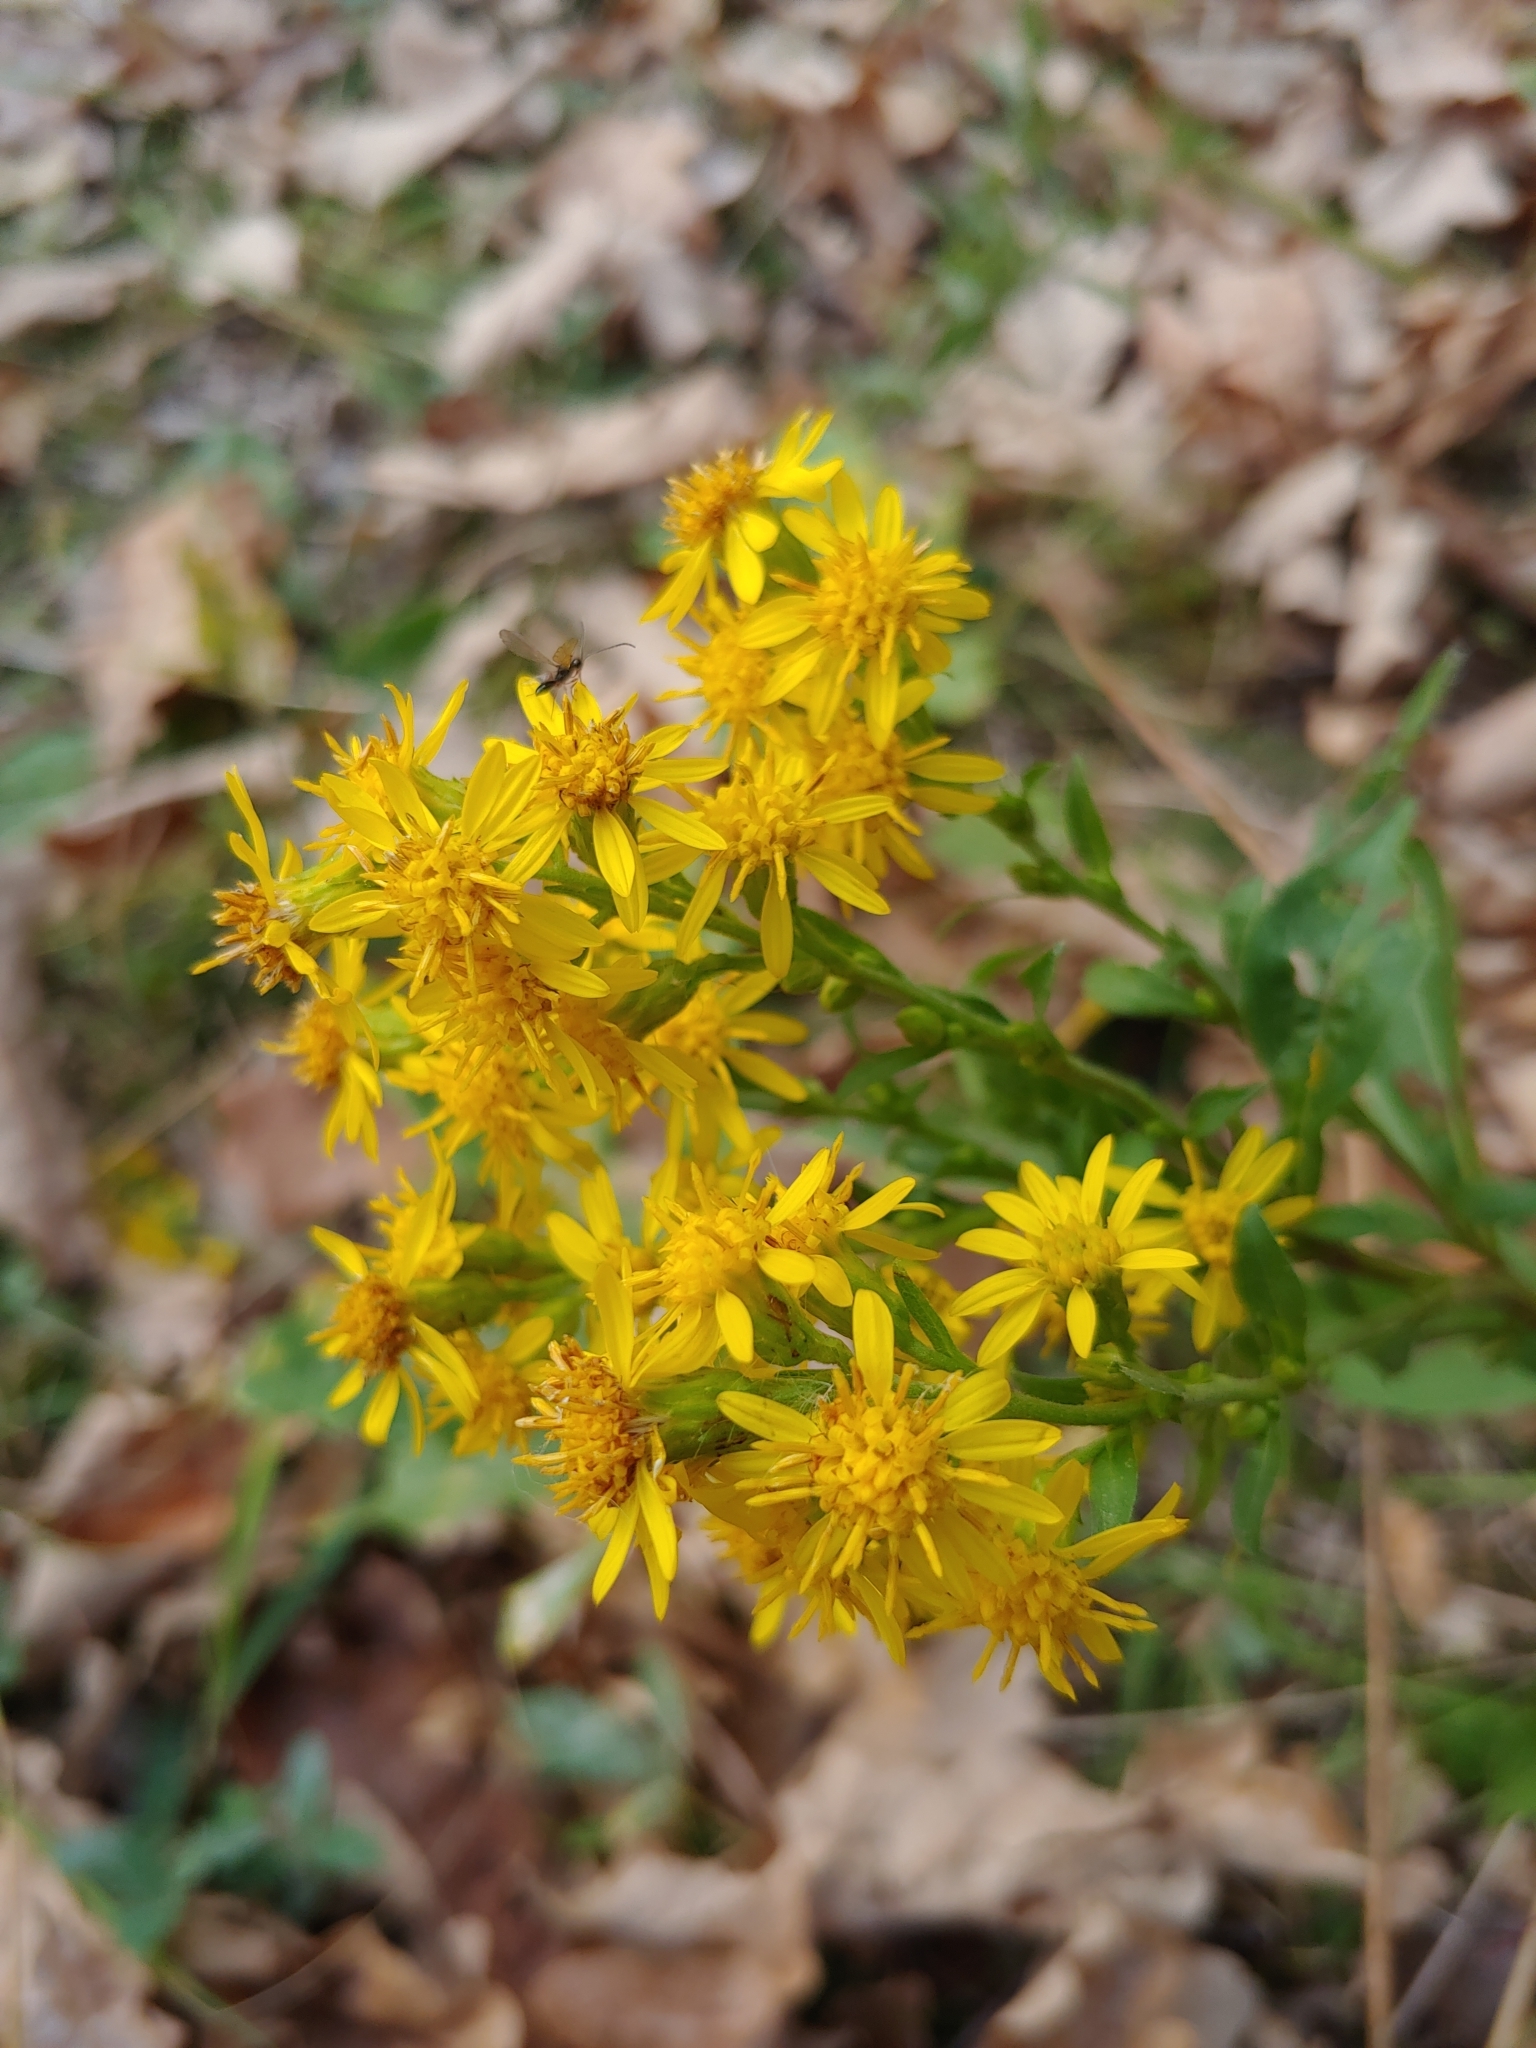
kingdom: Plantae
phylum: Tracheophyta
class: Magnoliopsida
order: Asterales
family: Asteraceae
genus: Solidago
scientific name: Solidago virgaurea
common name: Goldenrod
